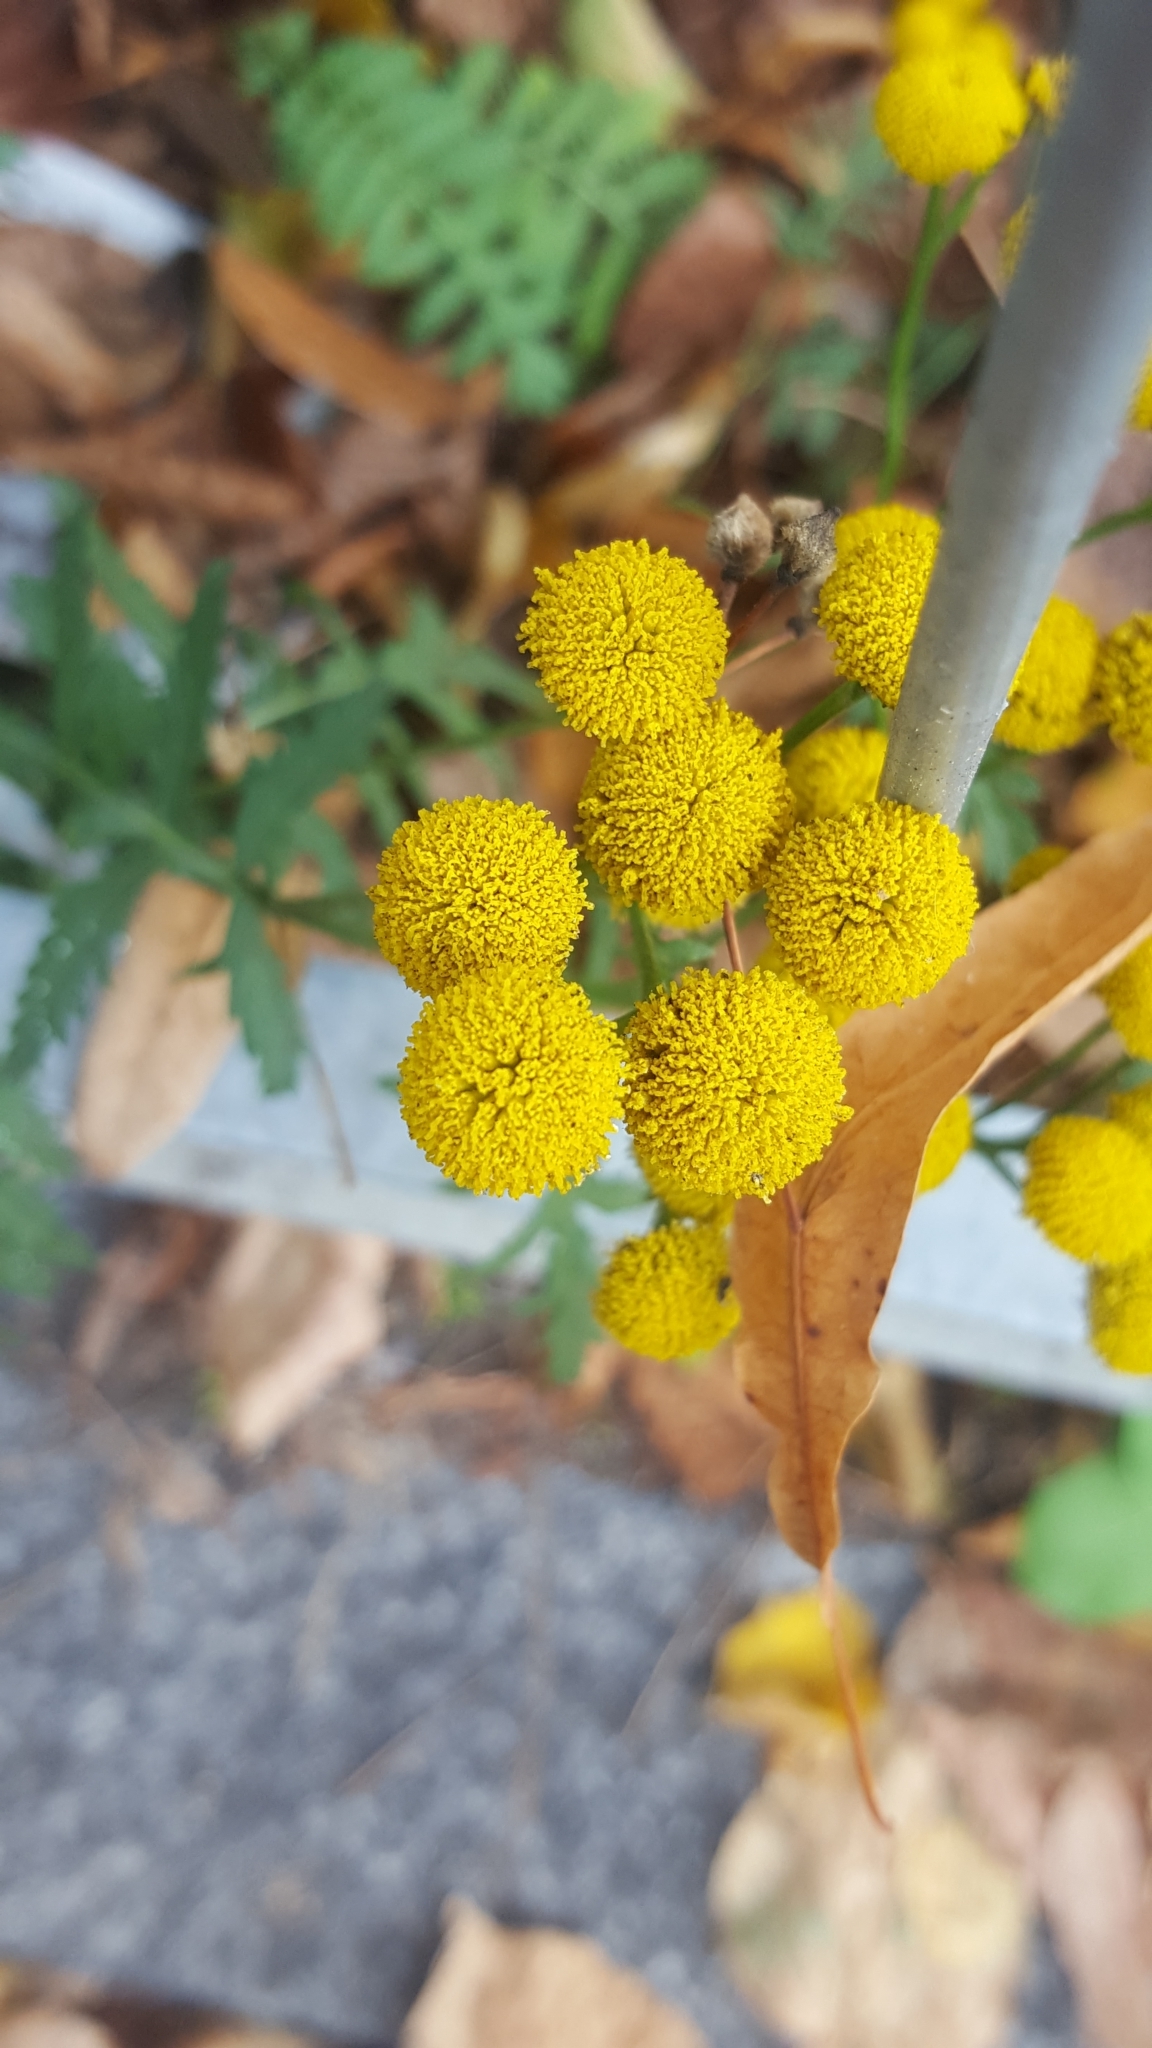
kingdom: Plantae
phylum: Tracheophyta
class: Magnoliopsida
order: Asterales
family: Asteraceae
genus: Tanacetum
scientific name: Tanacetum vulgare
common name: Common tansy
